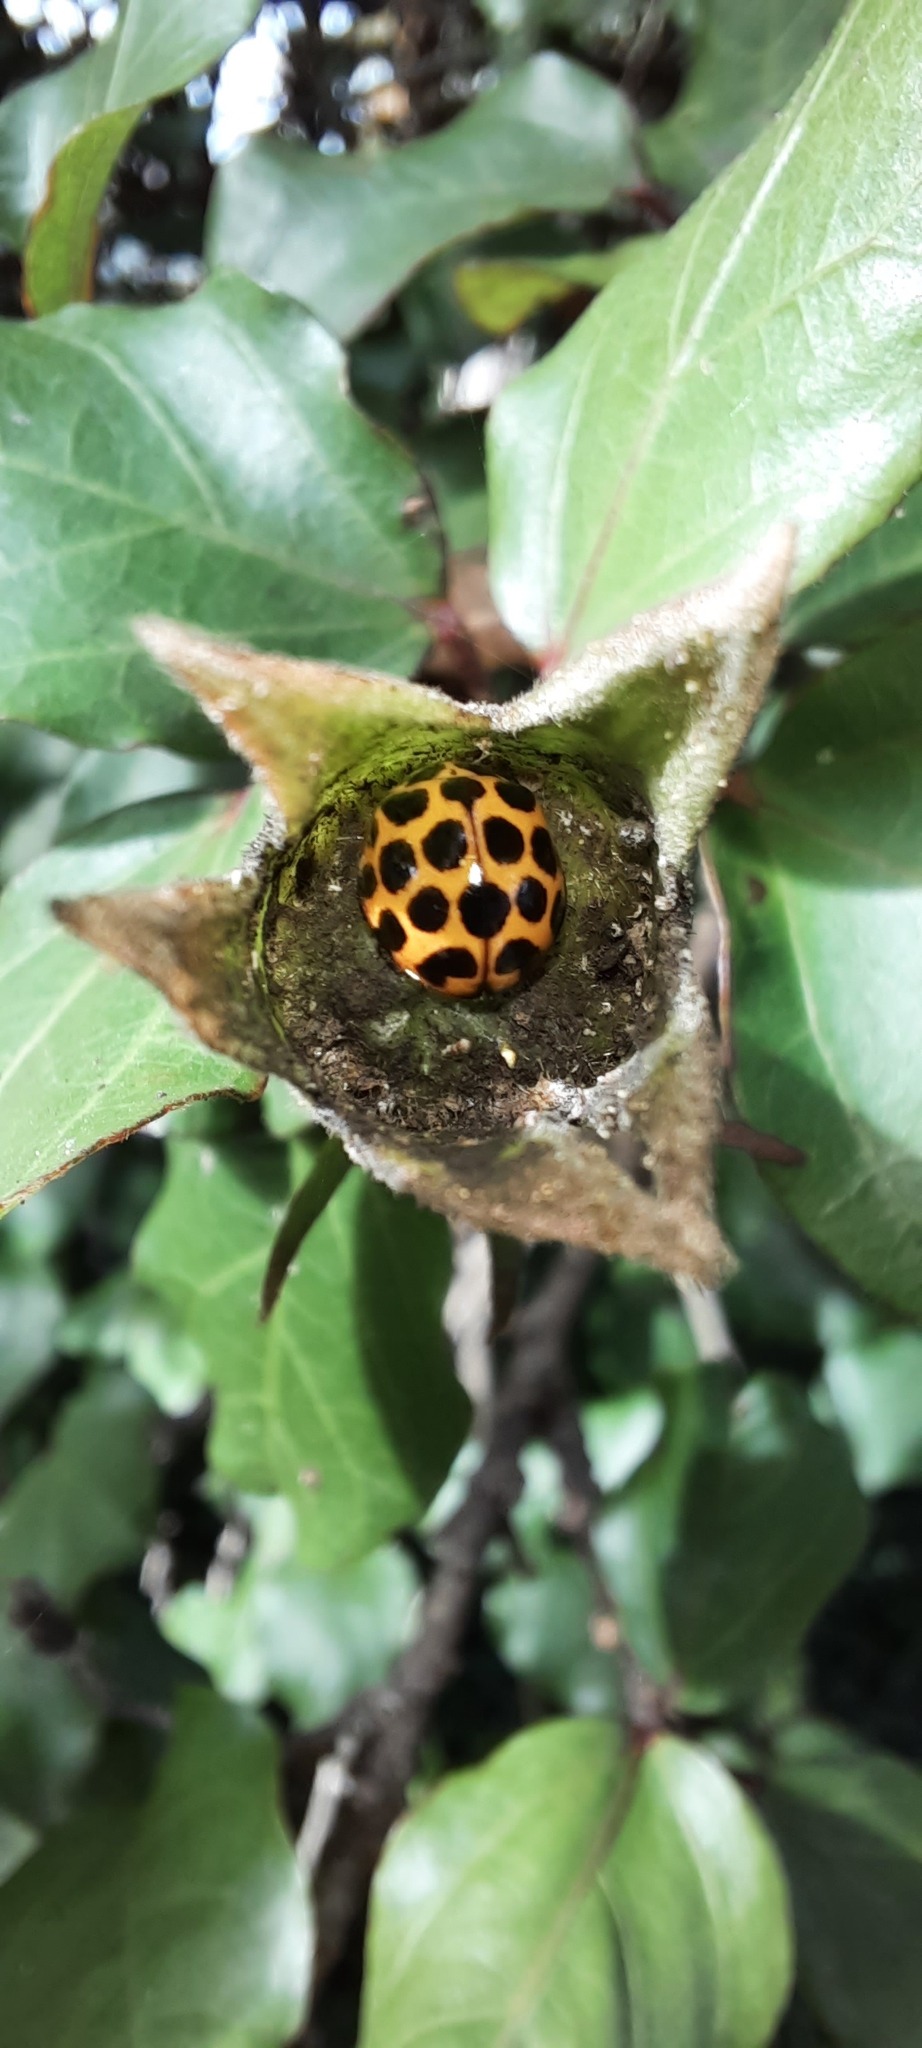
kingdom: Animalia
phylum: Arthropoda
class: Insecta
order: Coleoptera
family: Coccinellidae
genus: Harmonia
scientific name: Harmonia conformis
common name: Common spotted ladybird beetle
